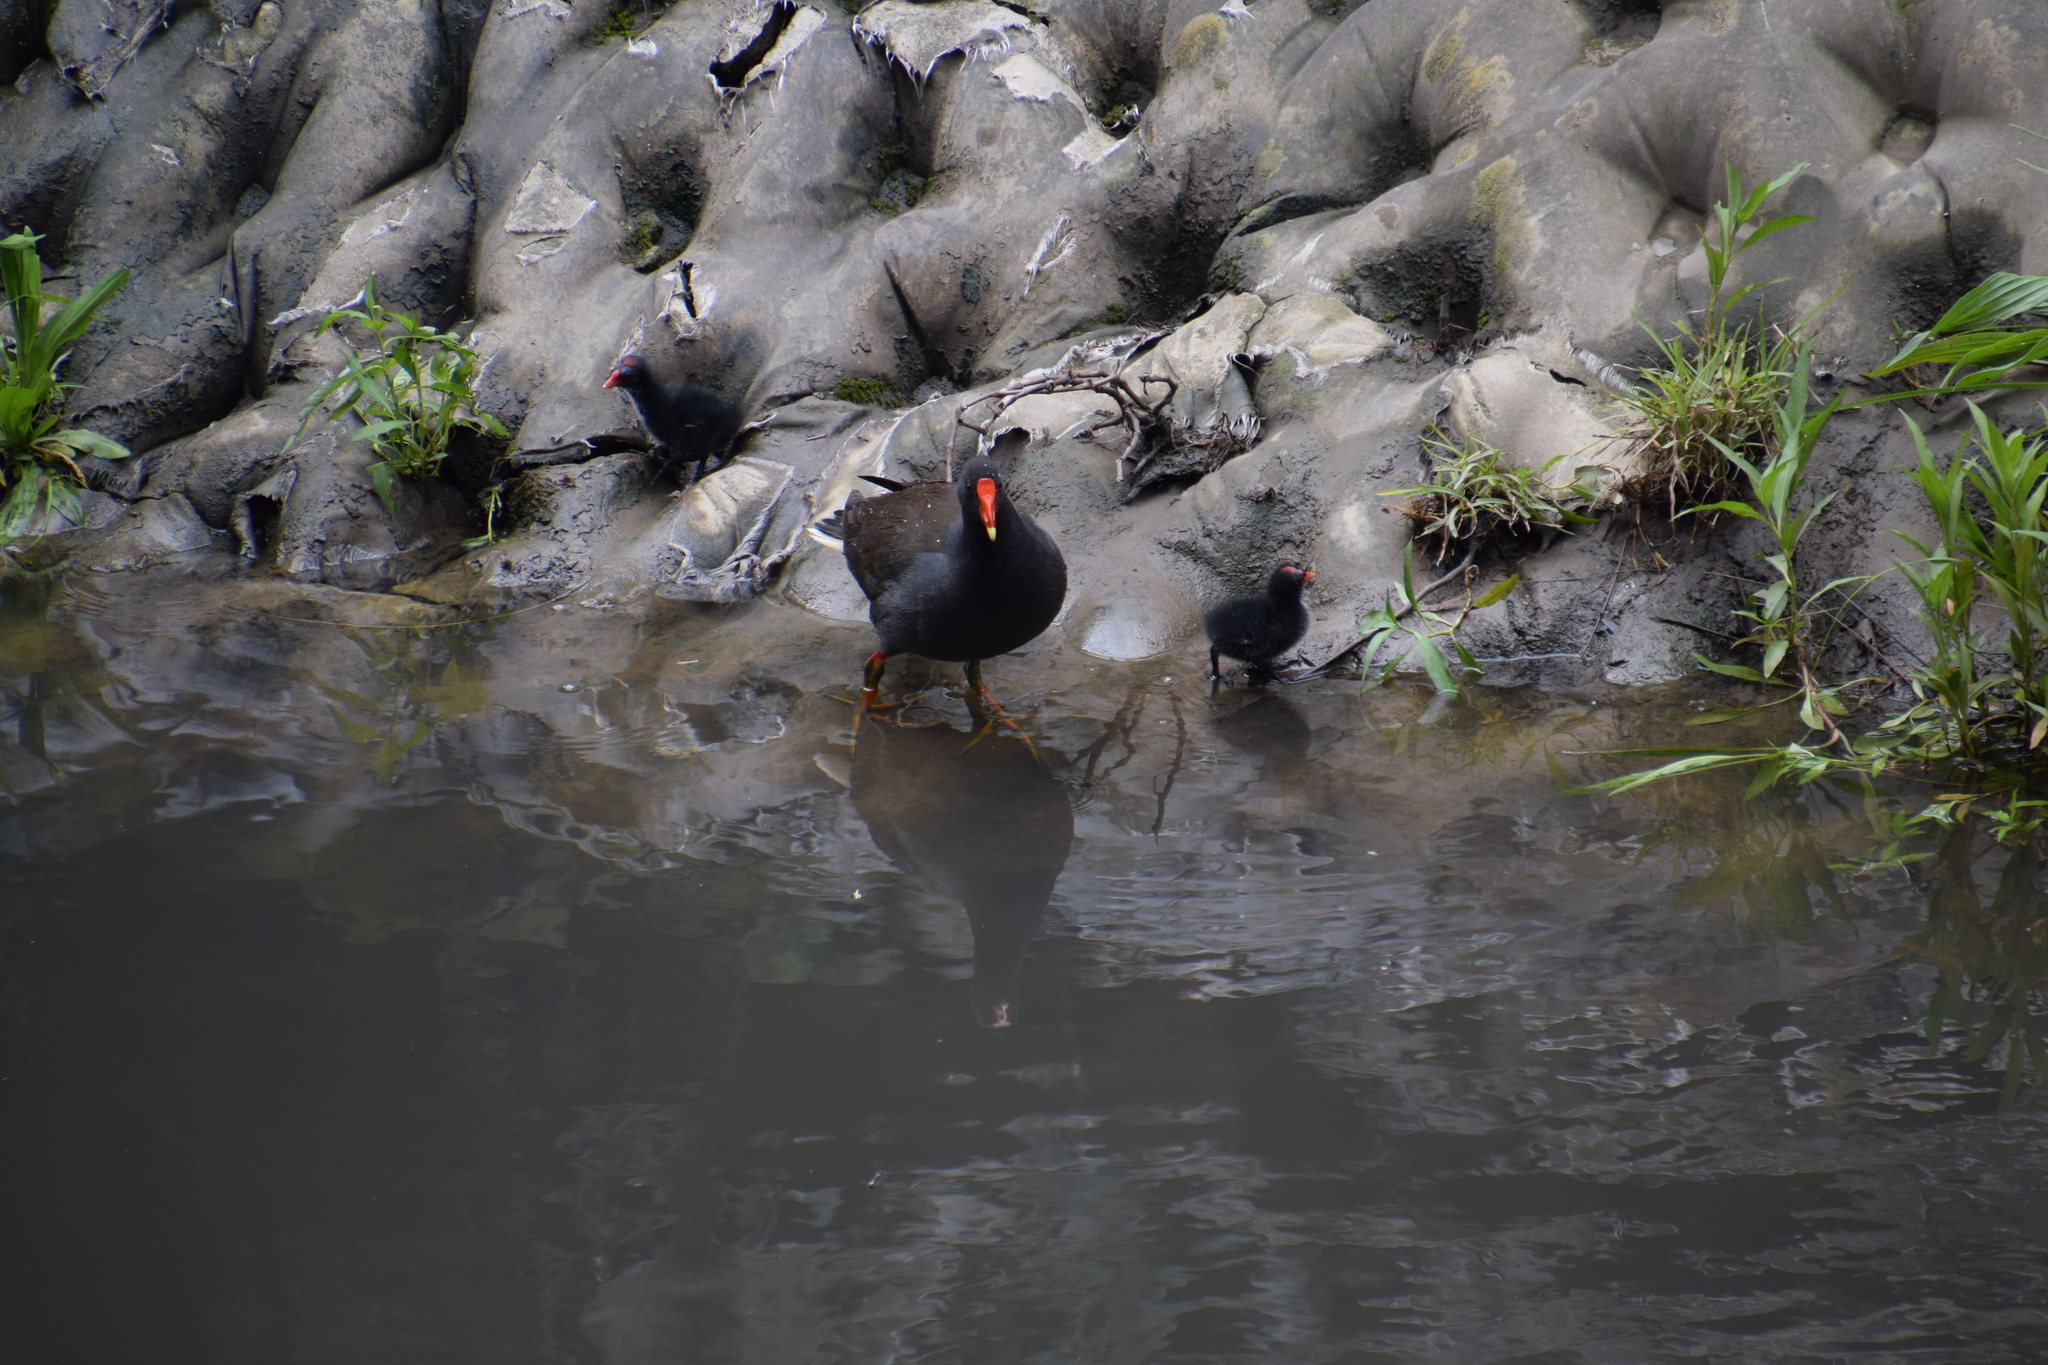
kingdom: Animalia
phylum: Chordata
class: Aves
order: Gruiformes
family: Rallidae
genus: Gallinula
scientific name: Gallinula tenebrosa
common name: Dusky moorhen
